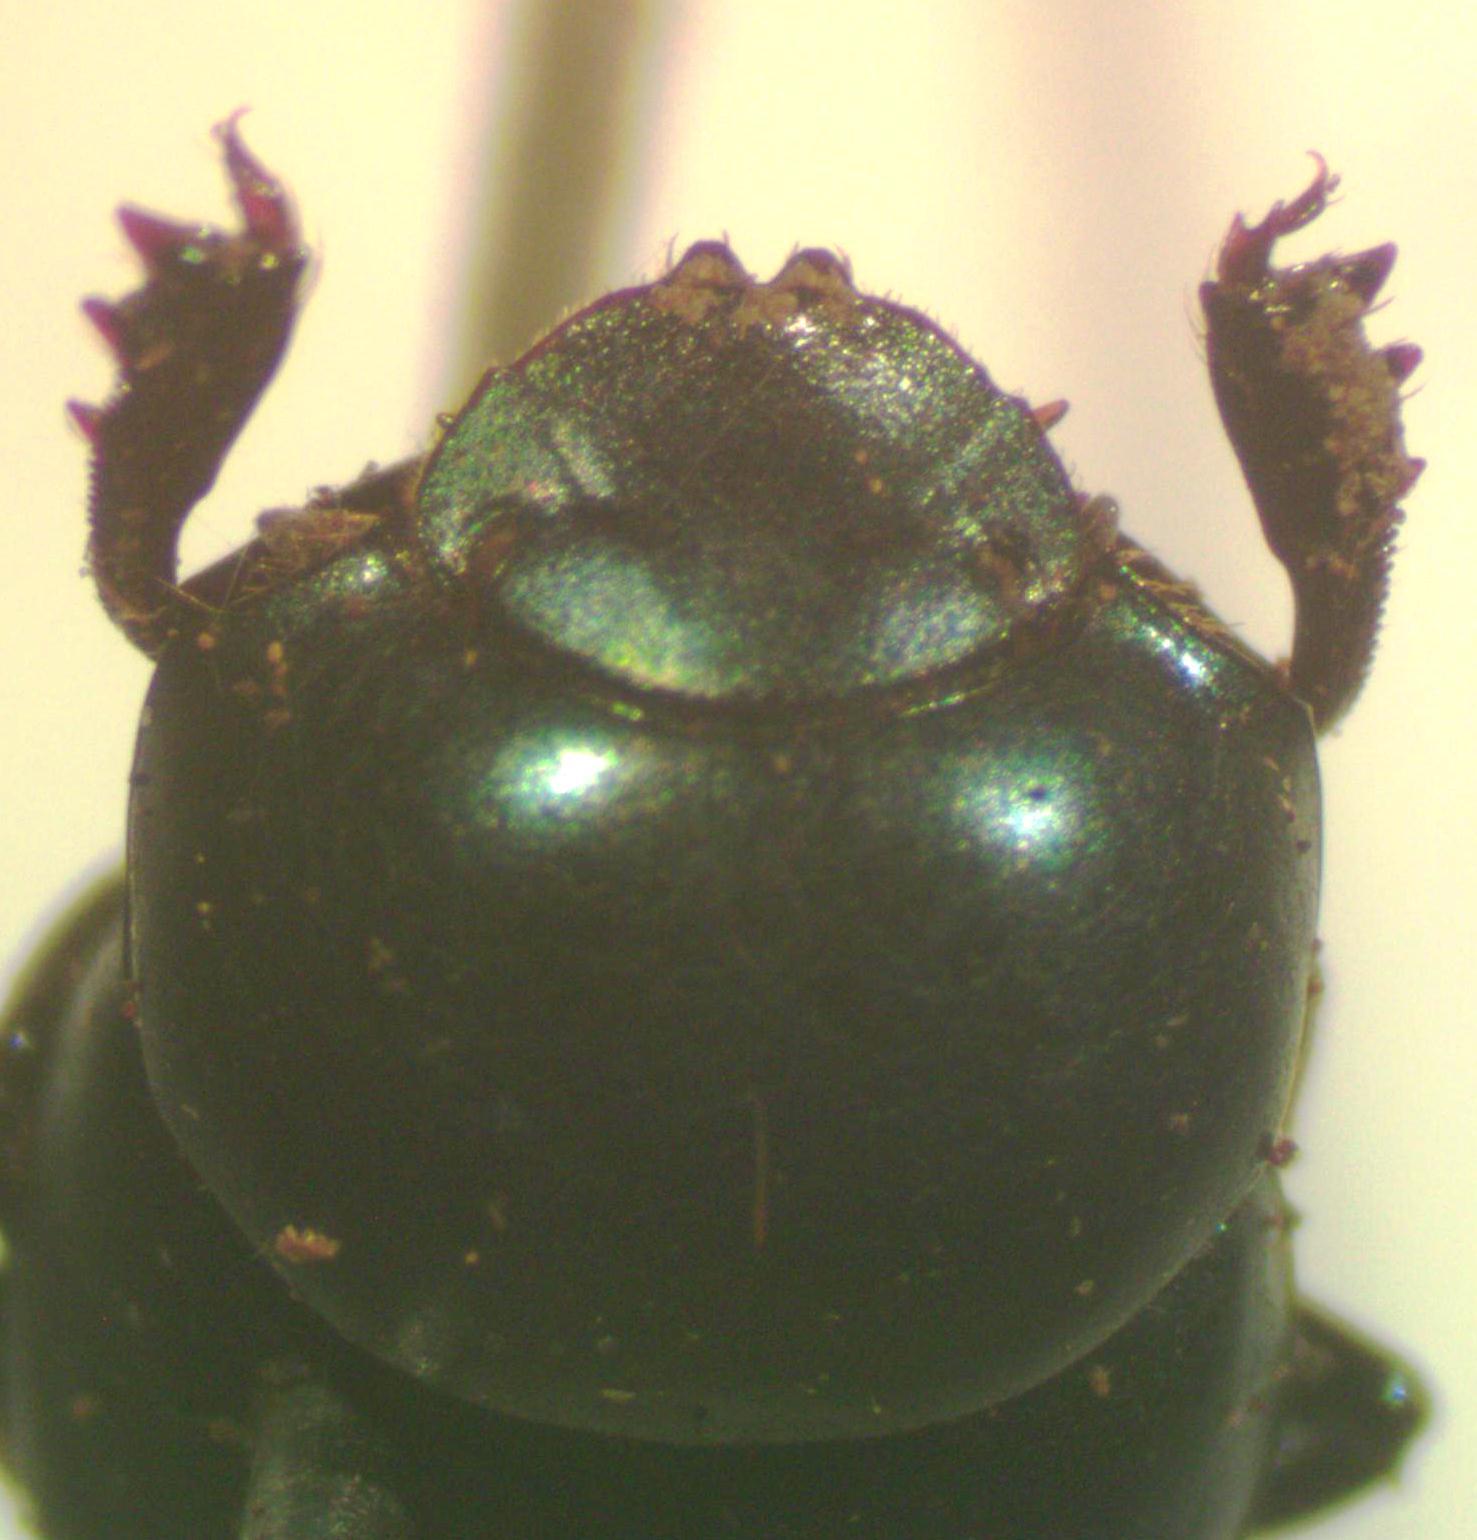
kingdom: Animalia
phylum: Arthropoda
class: Insecta
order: Coleoptera
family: Scarabaeidae
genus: Canthon
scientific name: Canthon meridionalis
